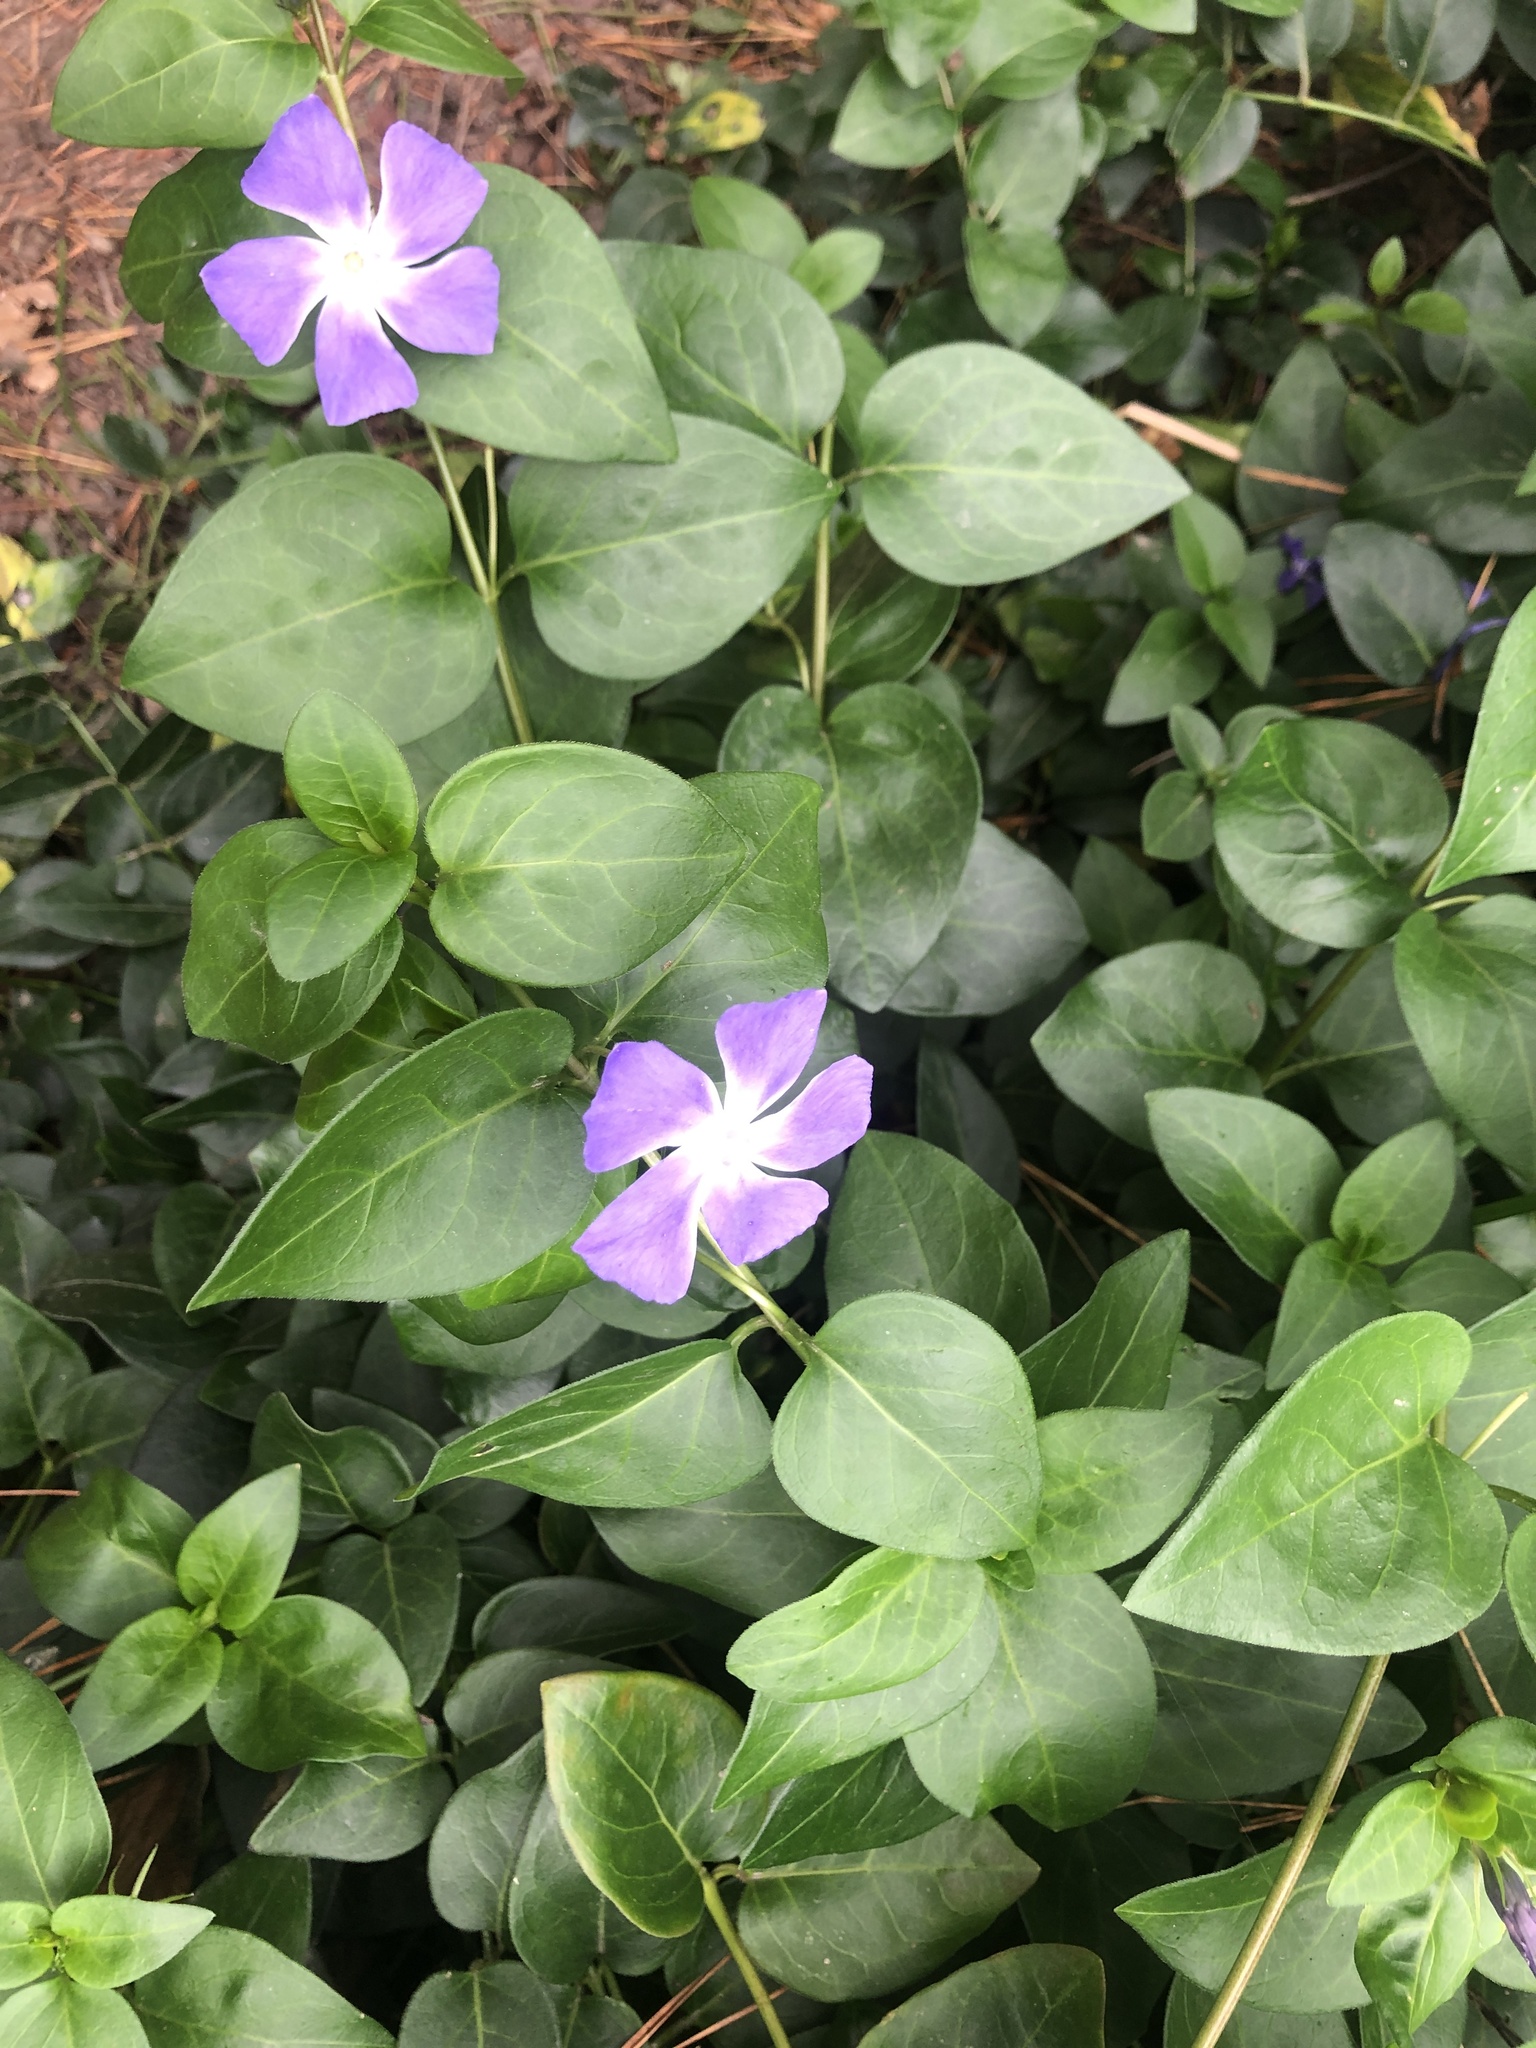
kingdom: Plantae
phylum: Tracheophyta
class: Magnoliopsida
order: Gentianales
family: Apocynaceae
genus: Vinca
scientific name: Vinca major
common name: Greater periwinkle
